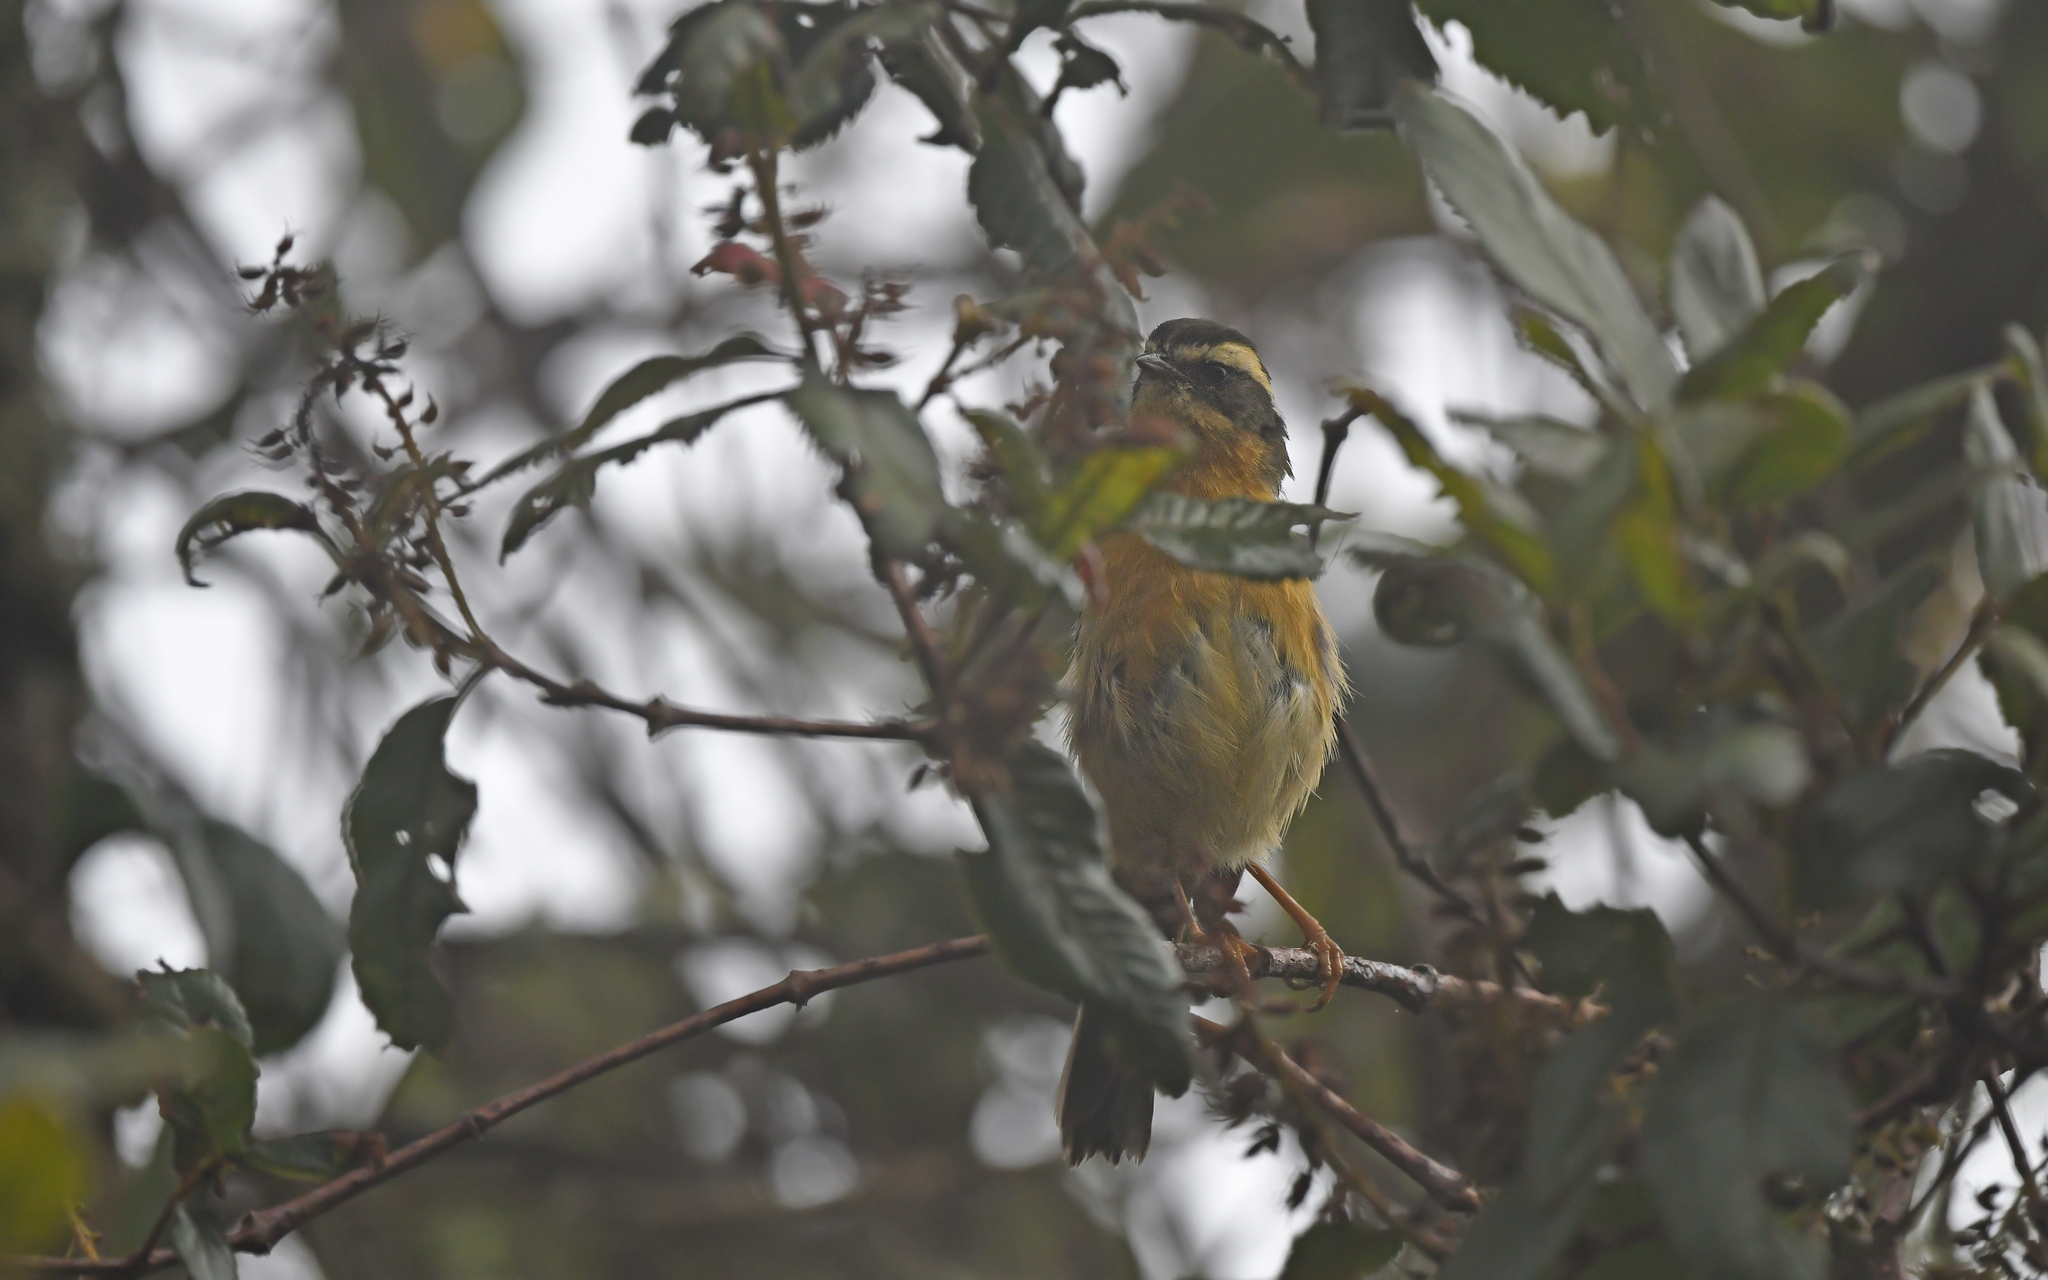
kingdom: Animalia
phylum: Chordata
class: Aves
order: Passeriformes
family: Thraupidae
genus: Microspingus
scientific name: Microspingus trifasciatus
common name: Three-striped hemispingus
